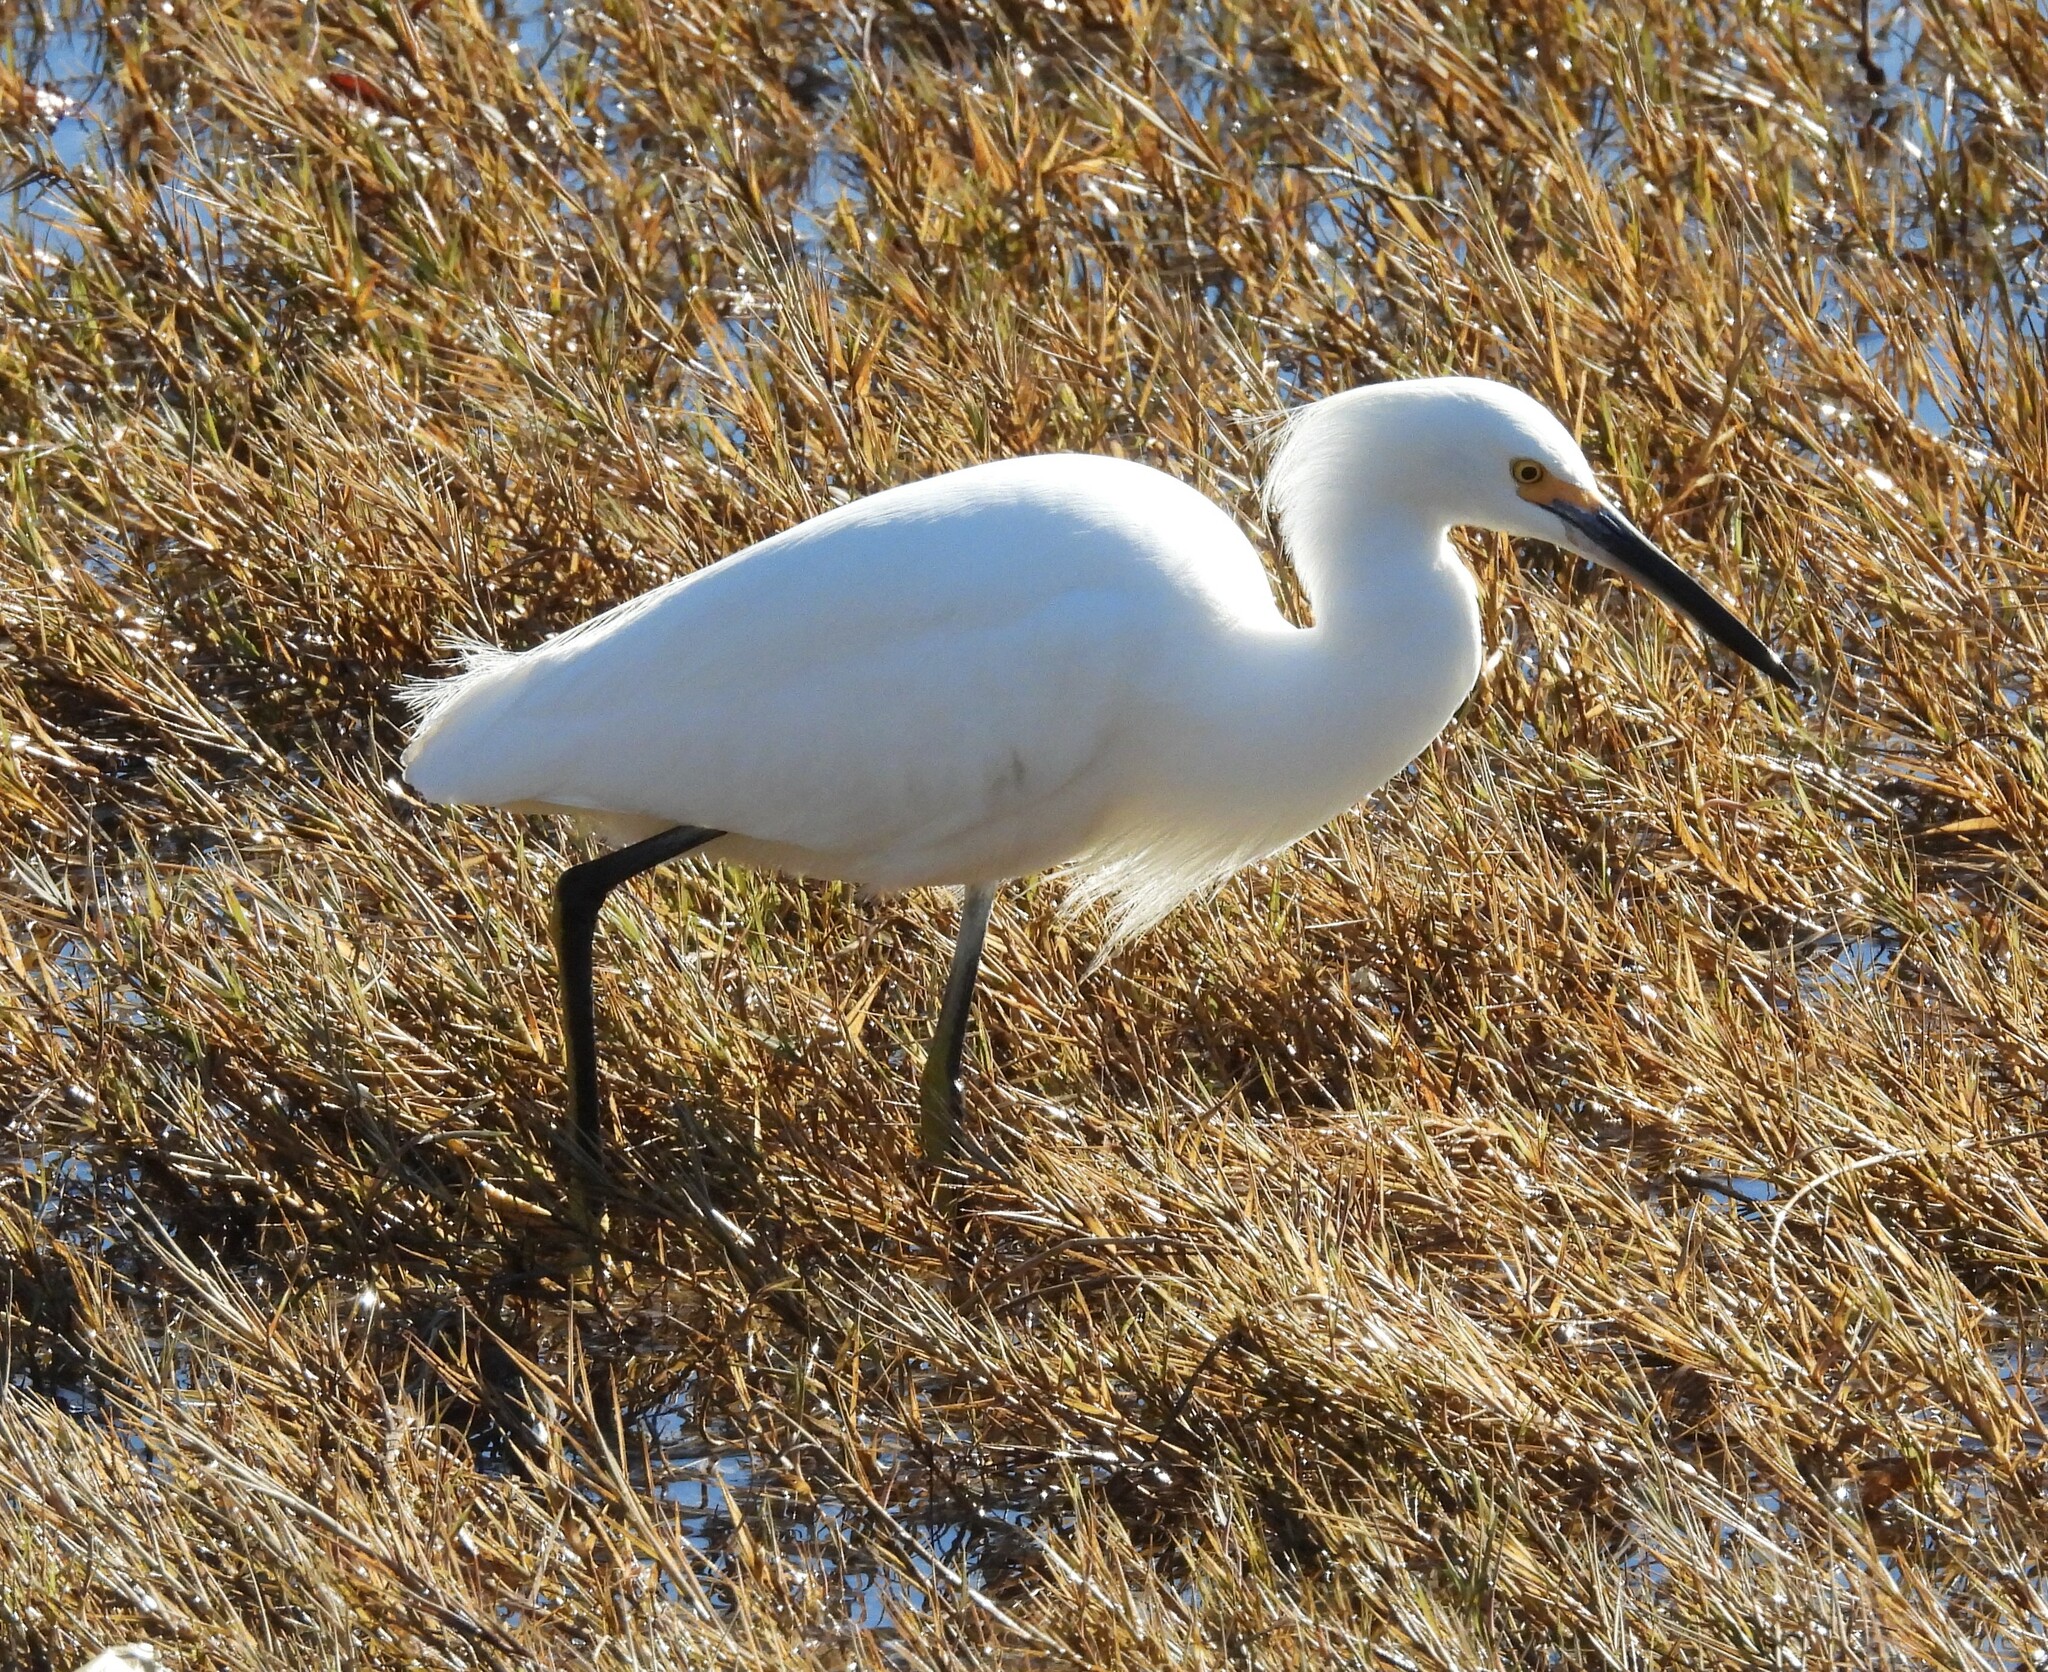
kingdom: Animalia
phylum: Chordata
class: Aves
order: Pelecaniformes
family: Ardeidae
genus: Egretta
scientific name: Egretta thula
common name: Snowy egret
